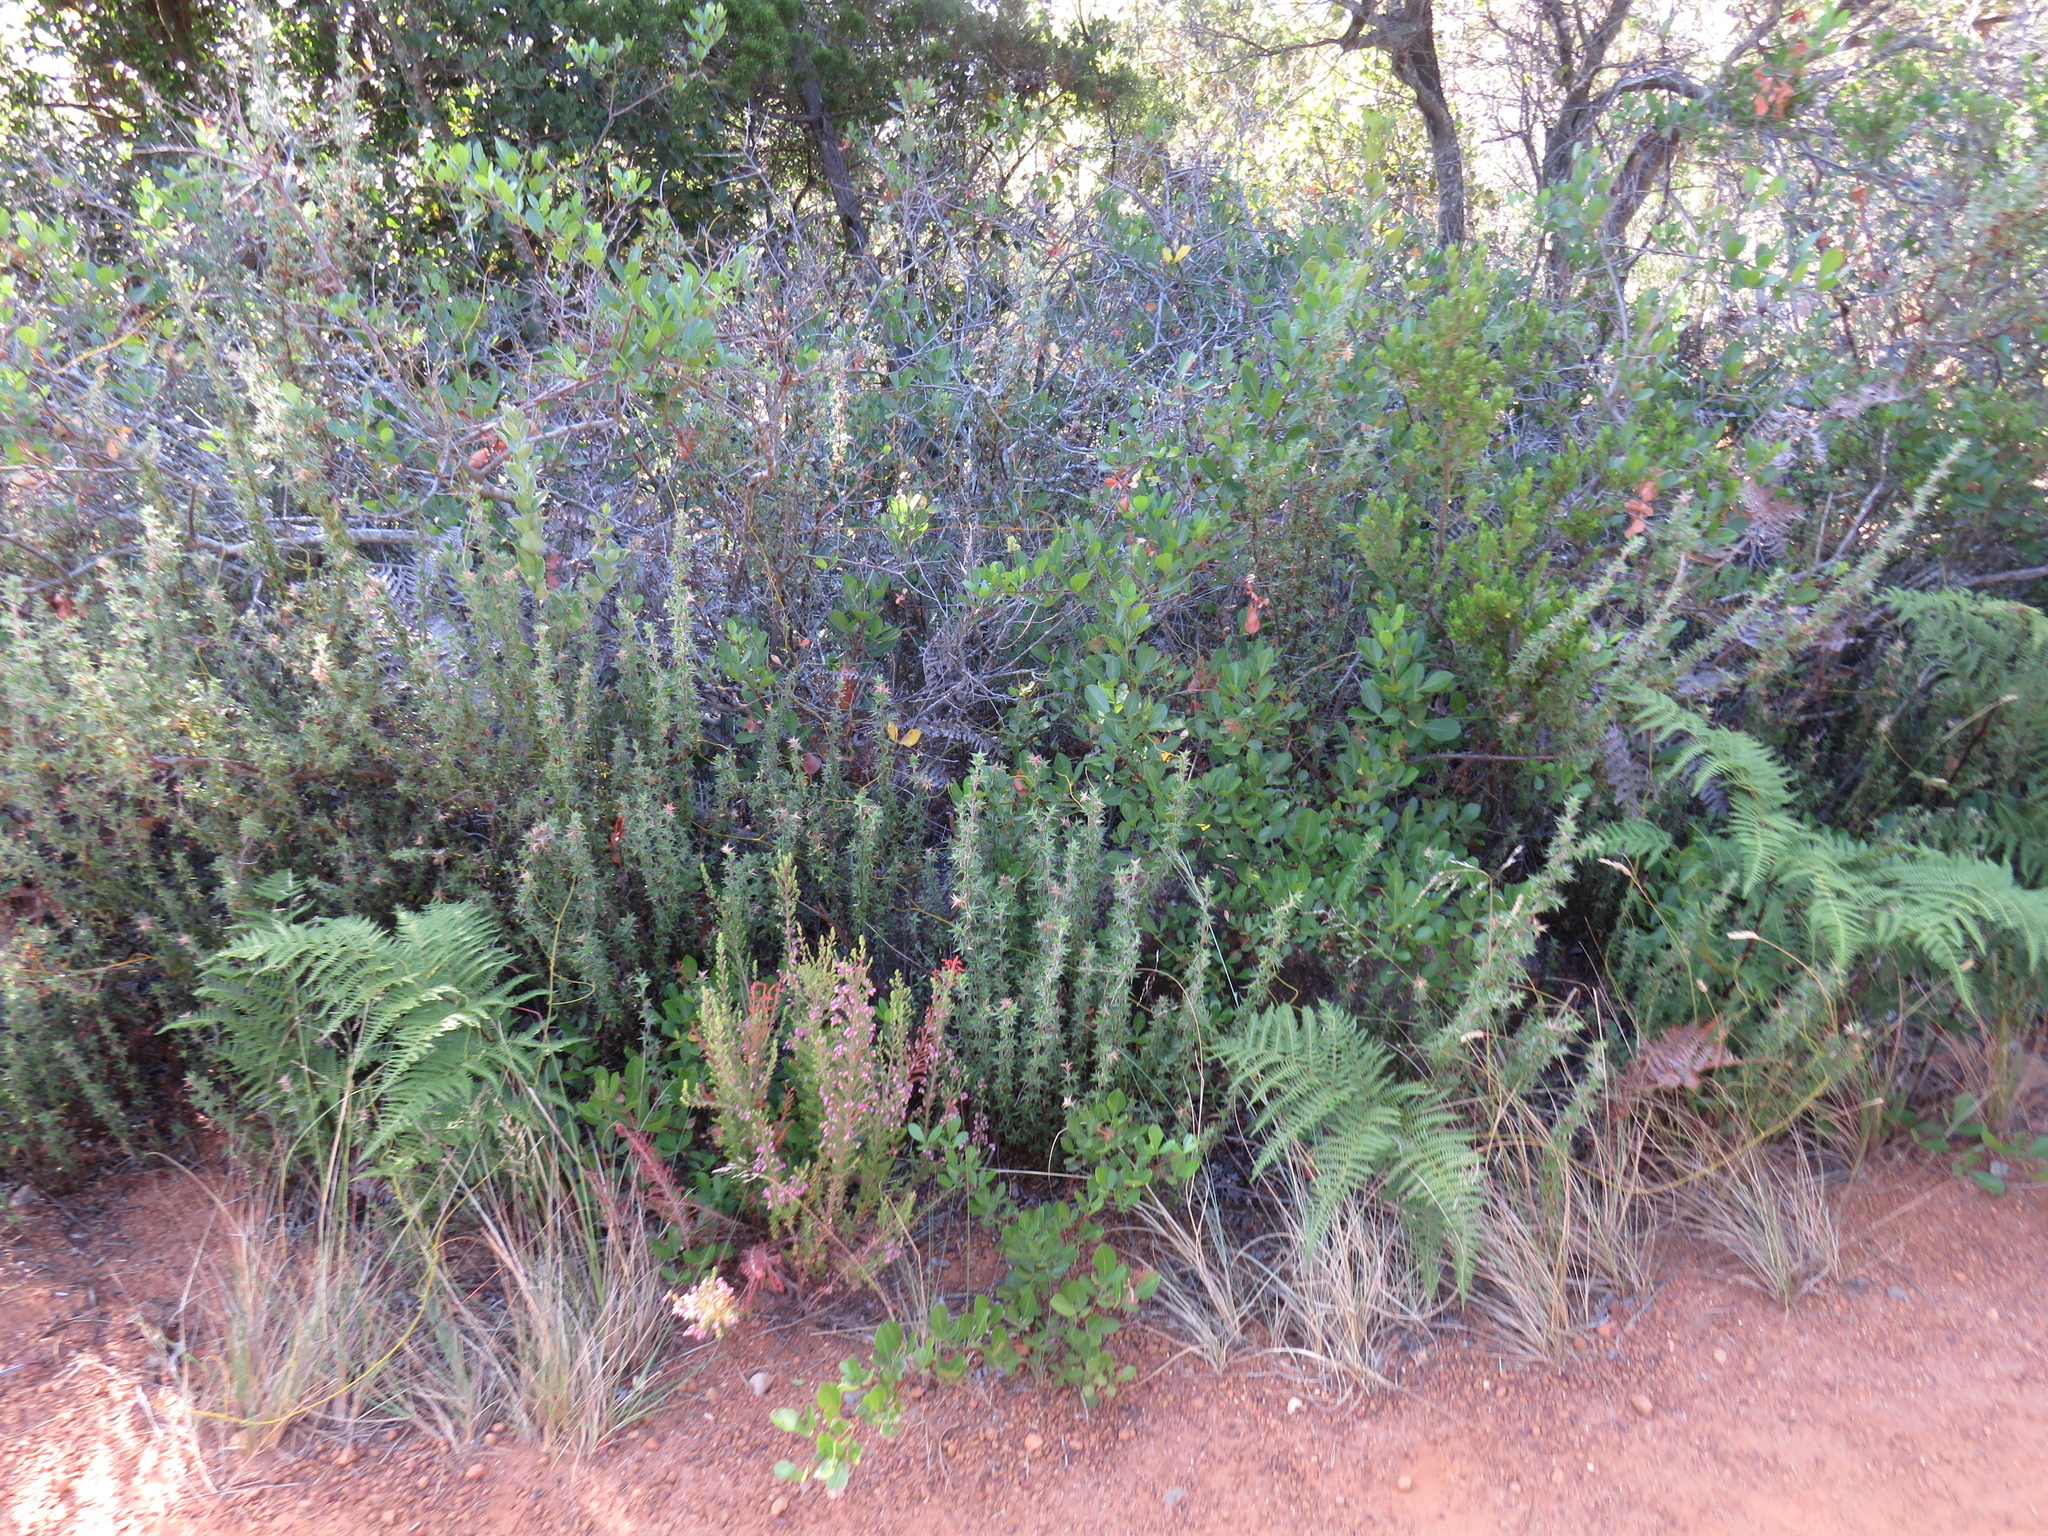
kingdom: Plantae
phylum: Tracheophyta
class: Magnoliopsida
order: Sapindales
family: Anacardiaceae
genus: Searsia
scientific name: Searsia laevigata
